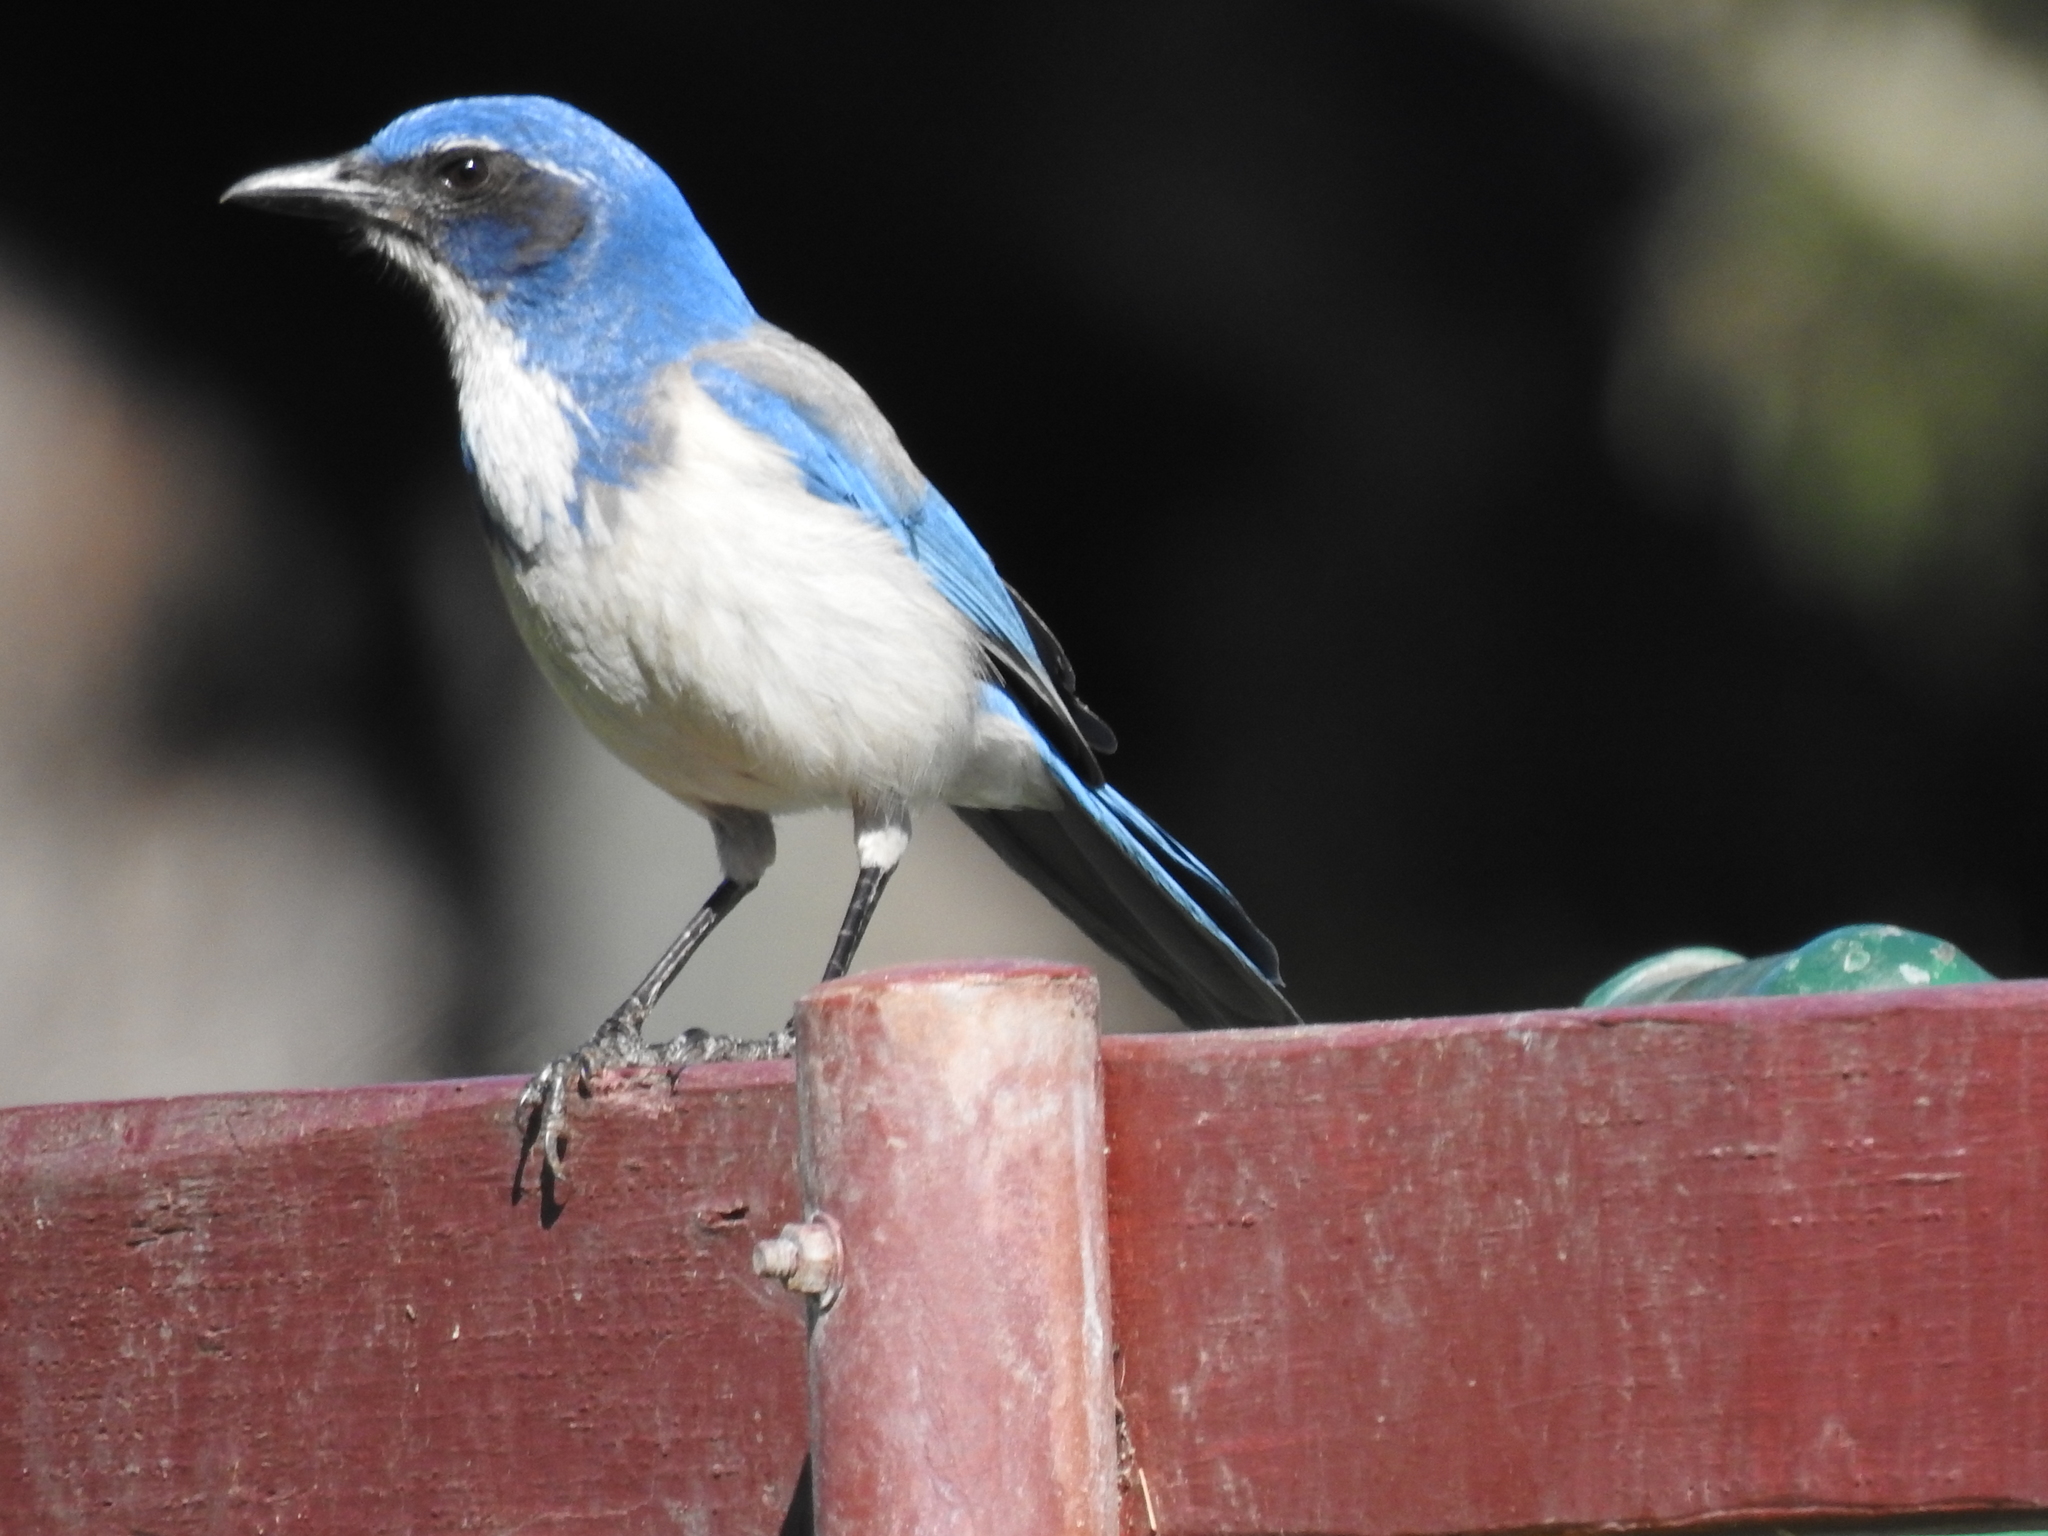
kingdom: Animalia
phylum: Chordata
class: Aves
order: Passeriformes
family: Corvidae
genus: Aphelocoma
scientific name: Aphelocoma californica
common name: California scrub-jay
